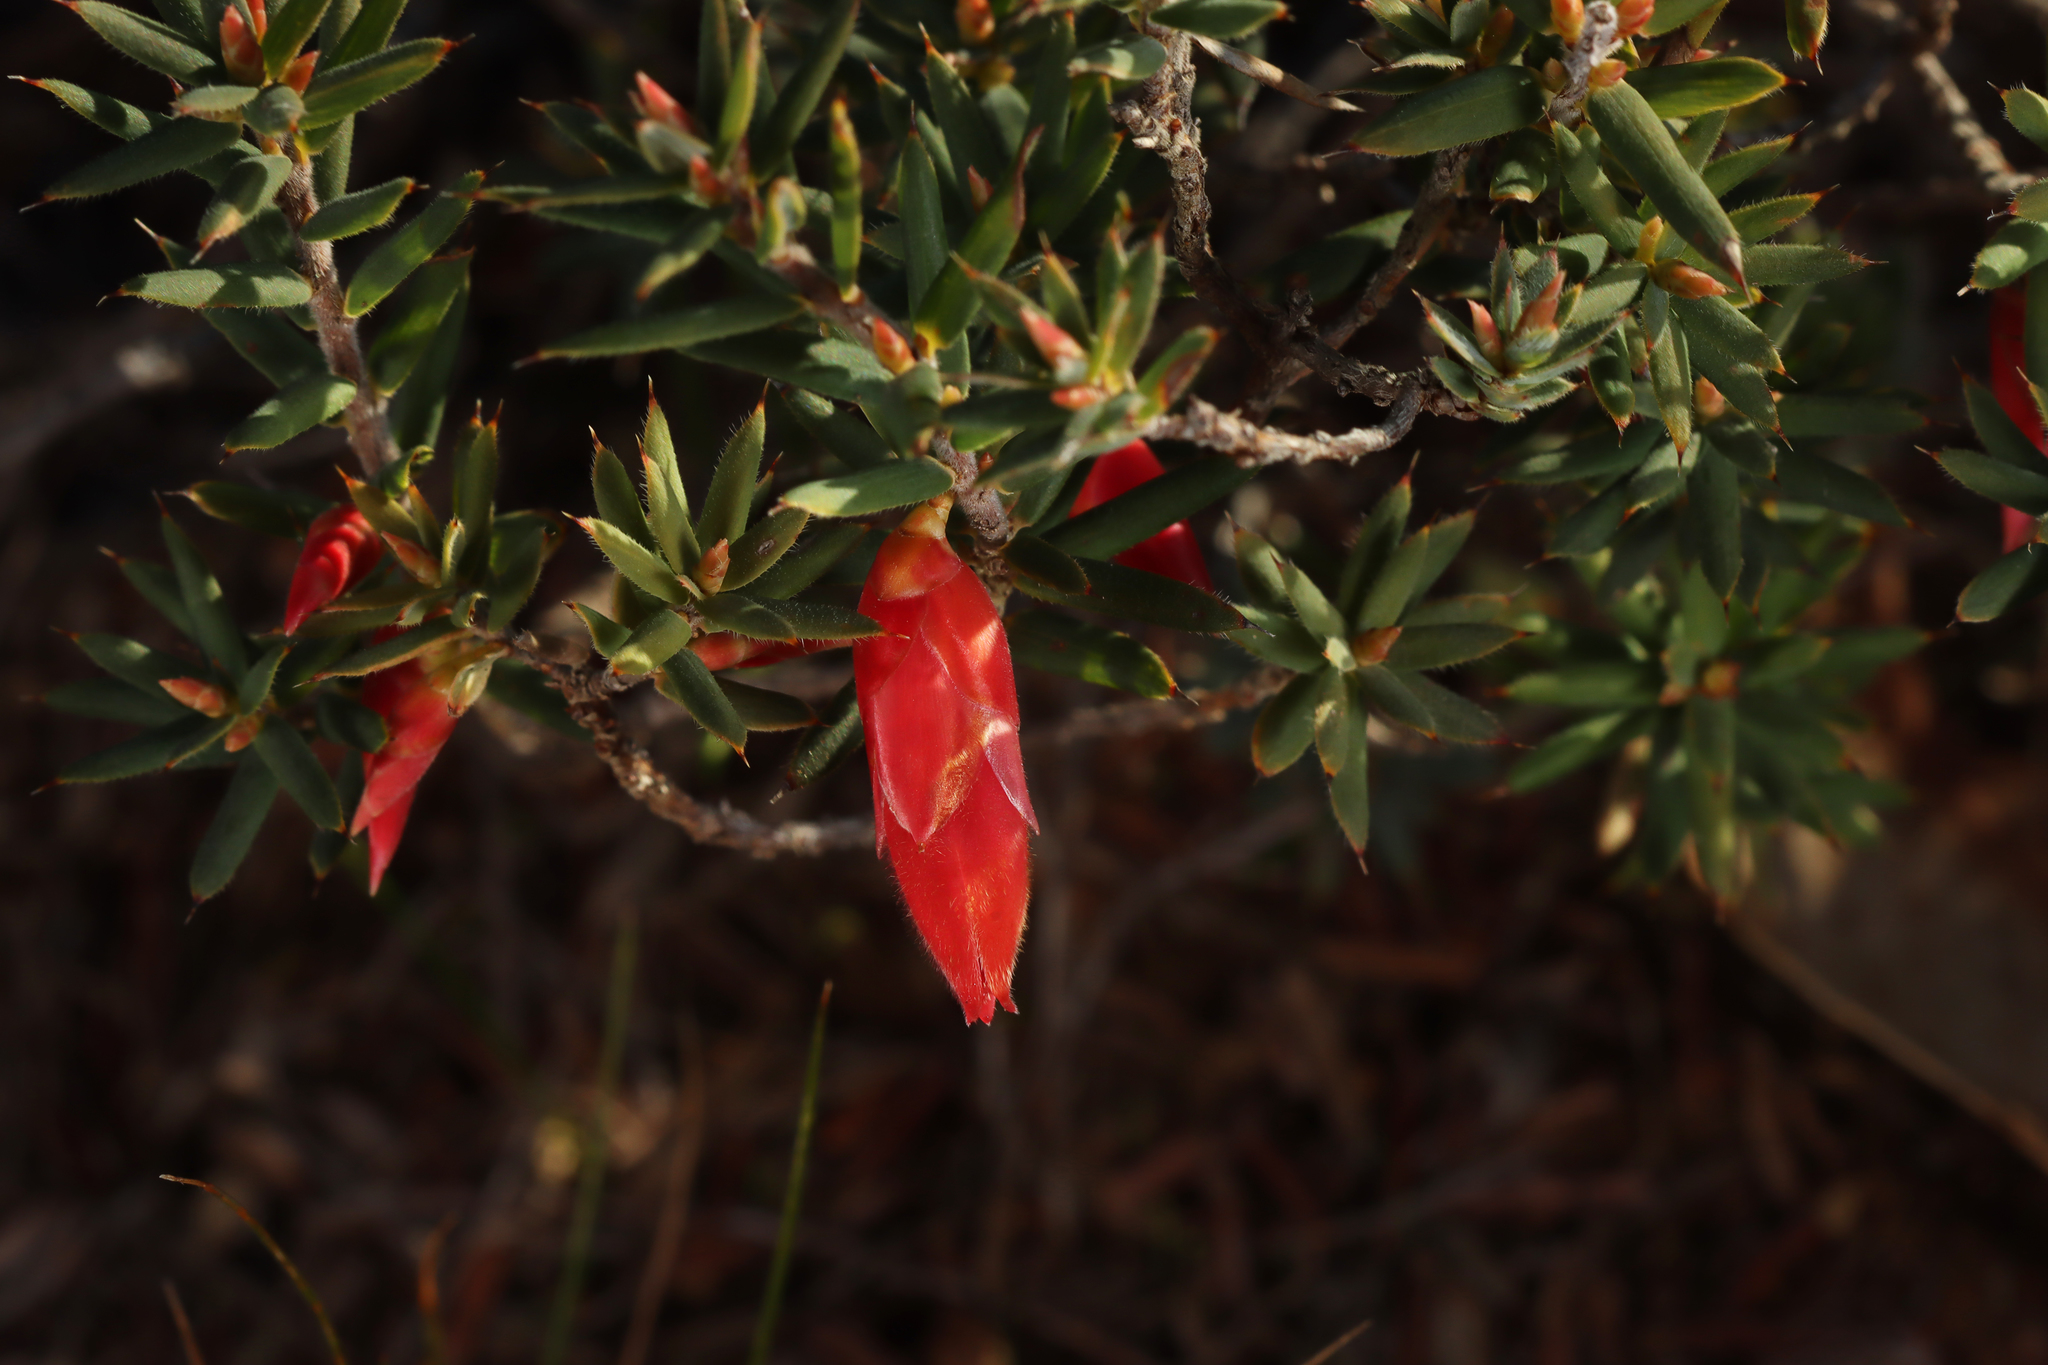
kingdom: Plantae
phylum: Tracheophyta
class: Magnoliopsida
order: Ericales
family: Ericaceae
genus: Stenanthera
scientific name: Stenanthera conostephioides
